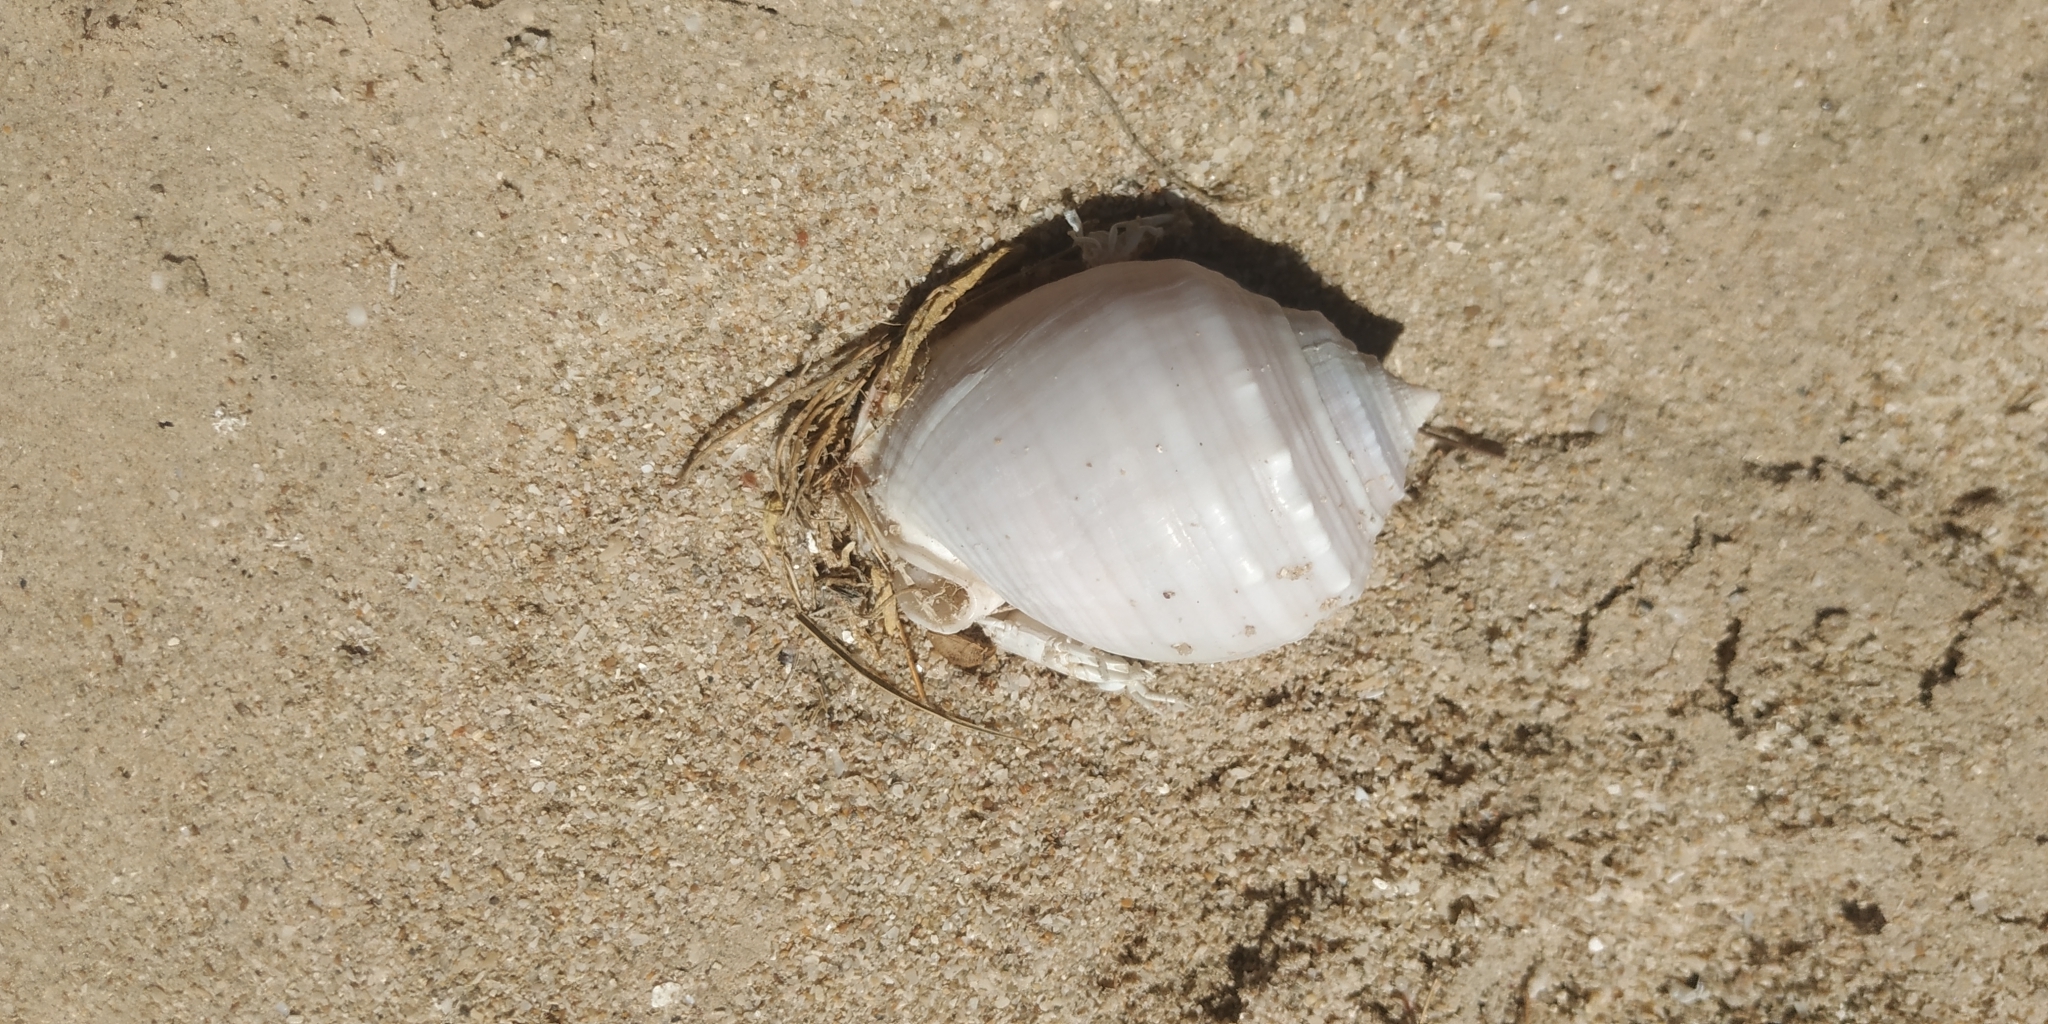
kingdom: Animalia
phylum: Mollusca
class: Gastropoda
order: Littorinimorpha
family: Cassidae
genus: Semicassis
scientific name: Semicassis centiquadrata
